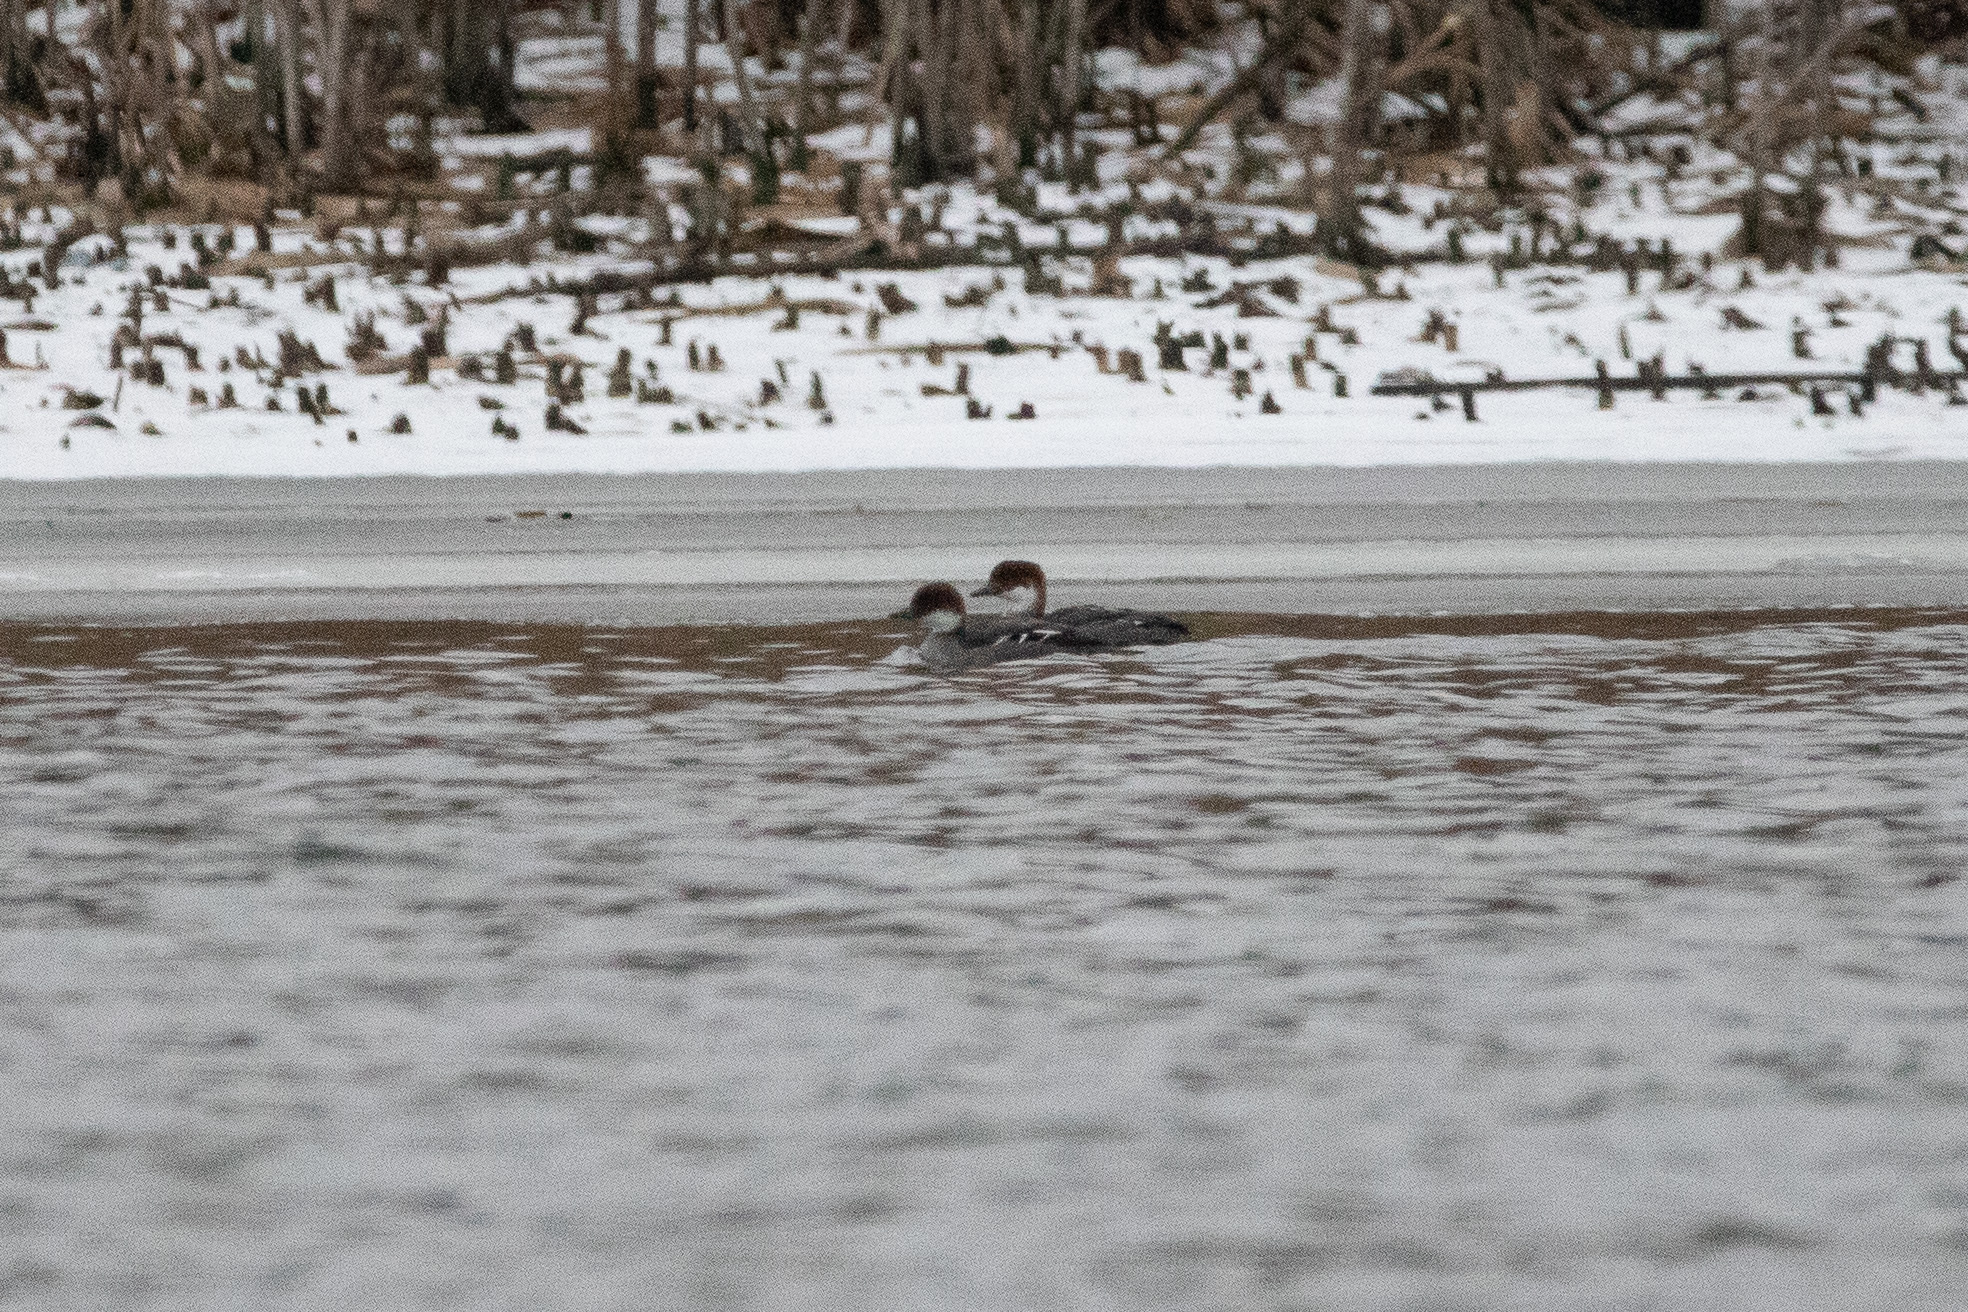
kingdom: Animalia
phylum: Chordata
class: Aves
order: Anseriformes
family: Anatidae
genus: Mergellus
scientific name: Mergellus albellus
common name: Smew
